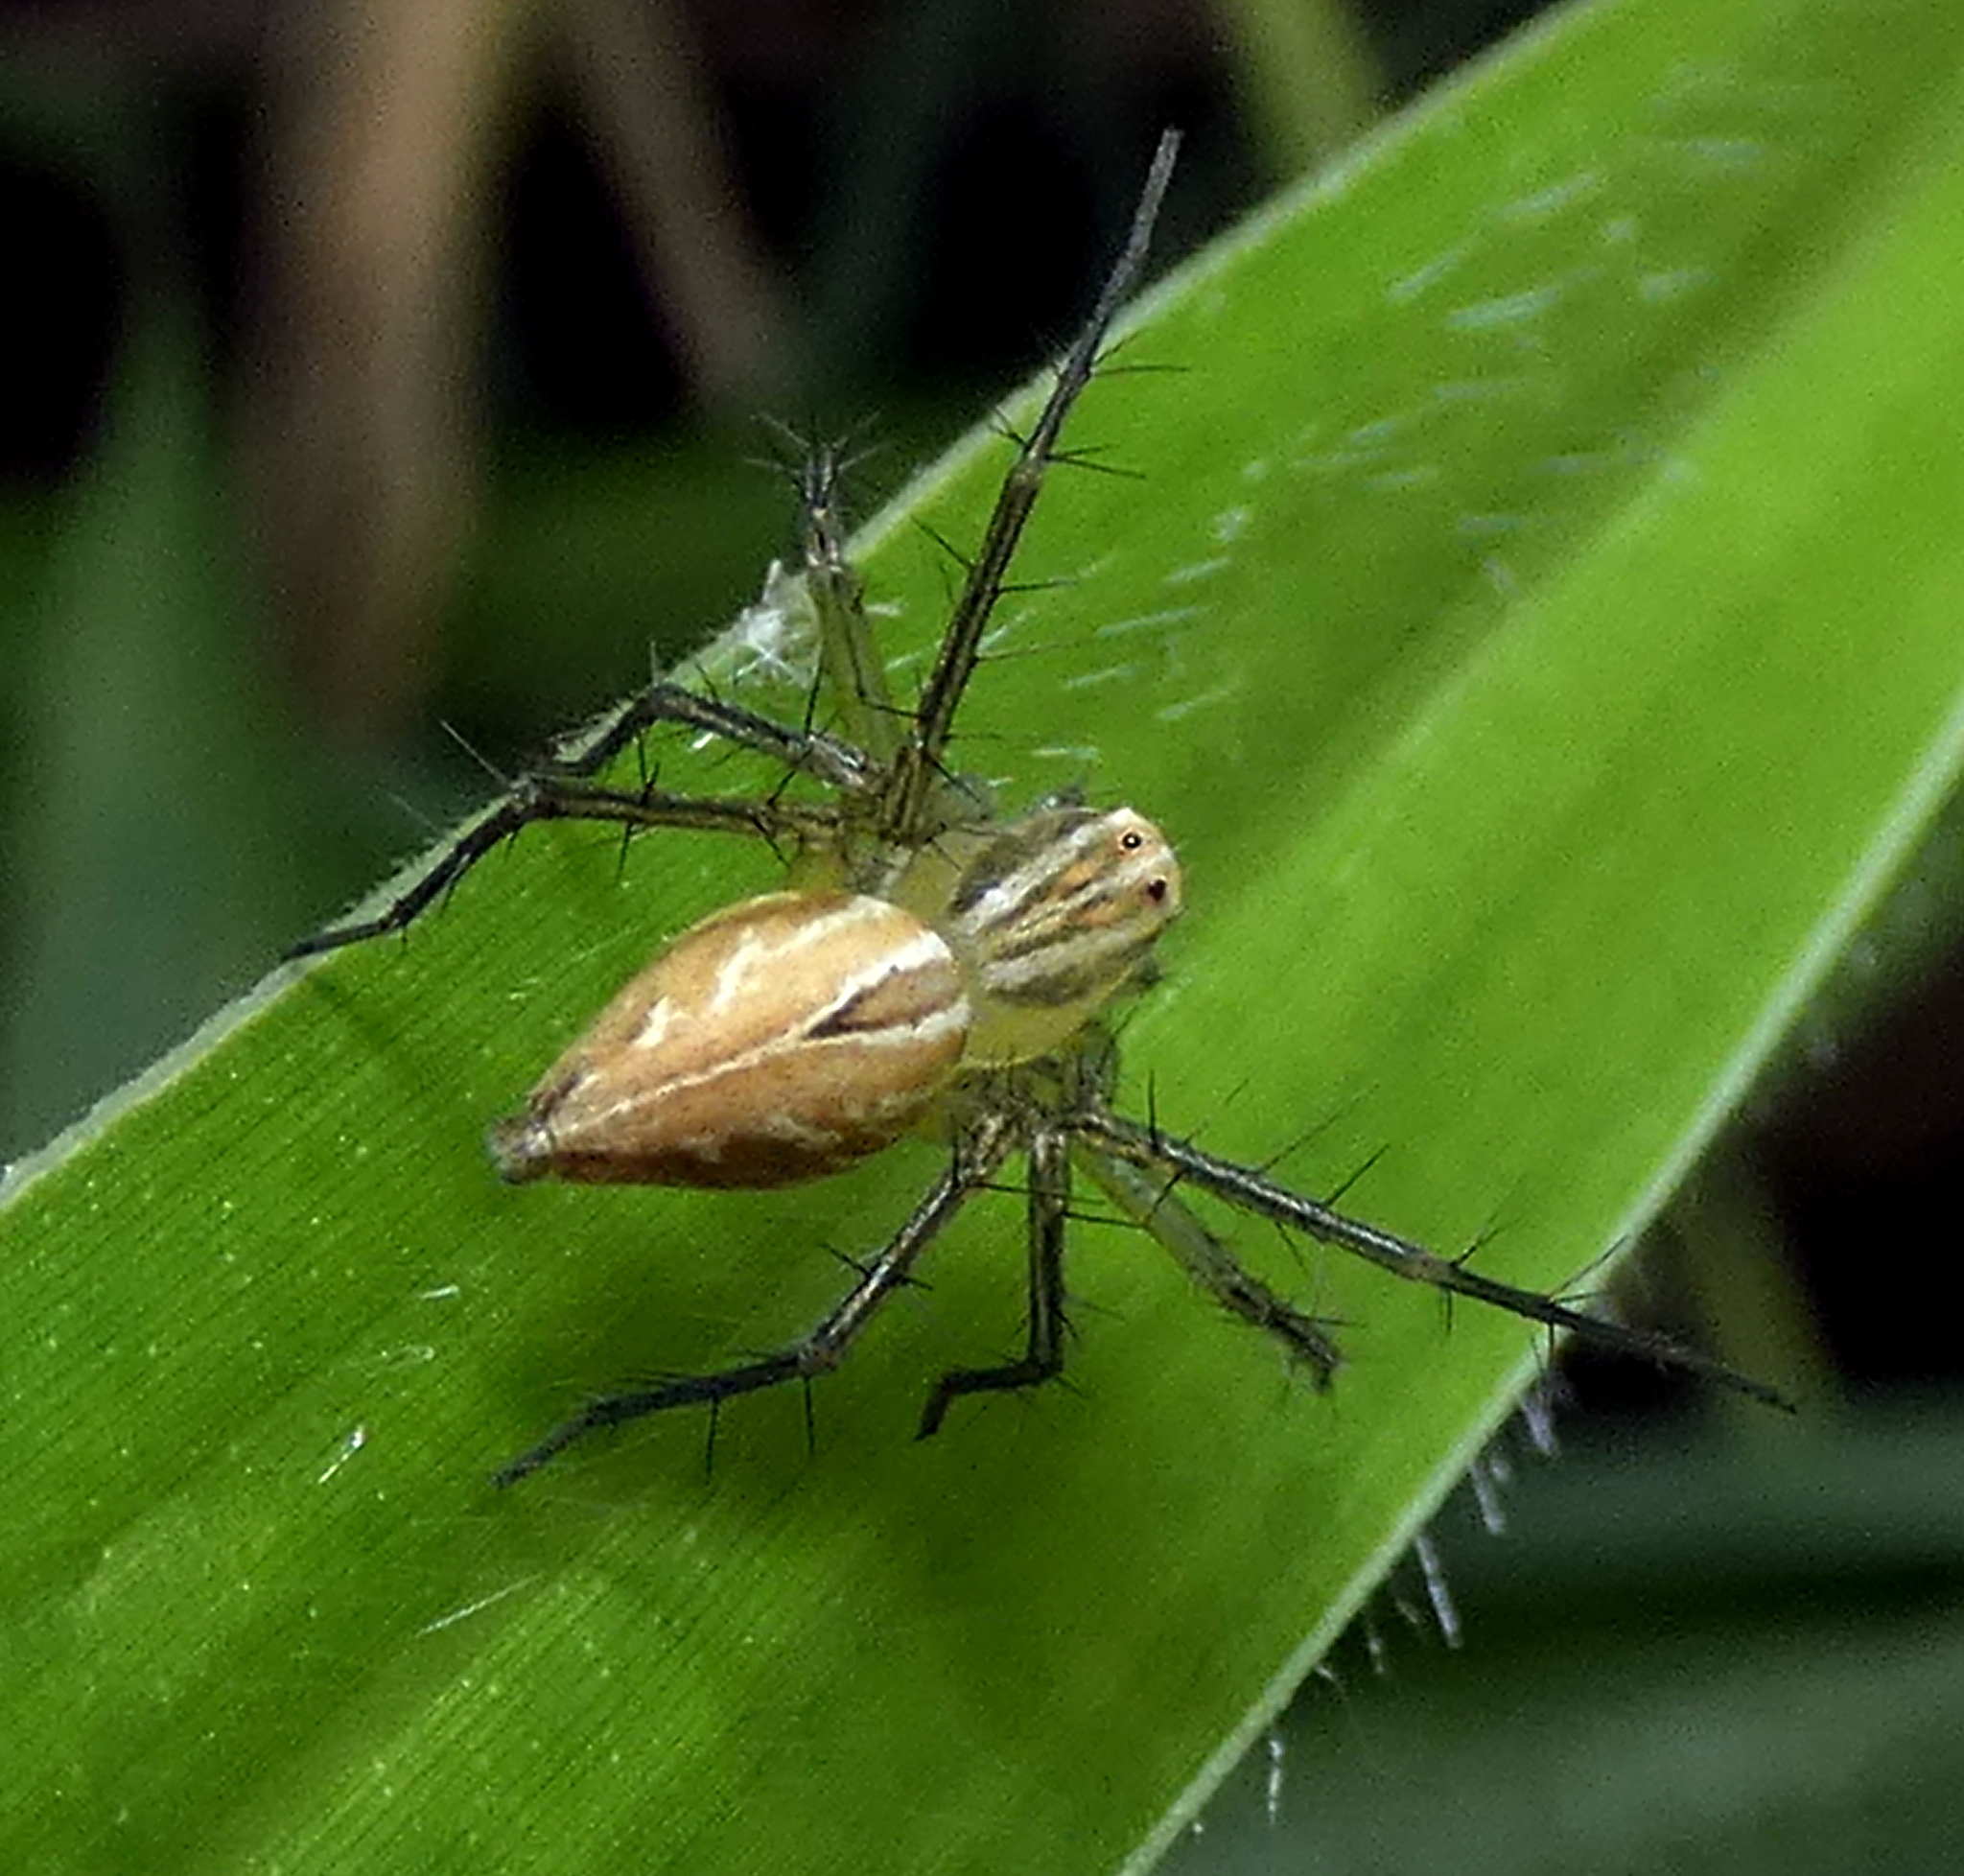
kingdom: Animalia
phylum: Arthropoda
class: Arachnida
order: Araneae
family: Oxyopidae
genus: Oxyopes
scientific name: Oxyopes salticus
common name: Lynx spiders
